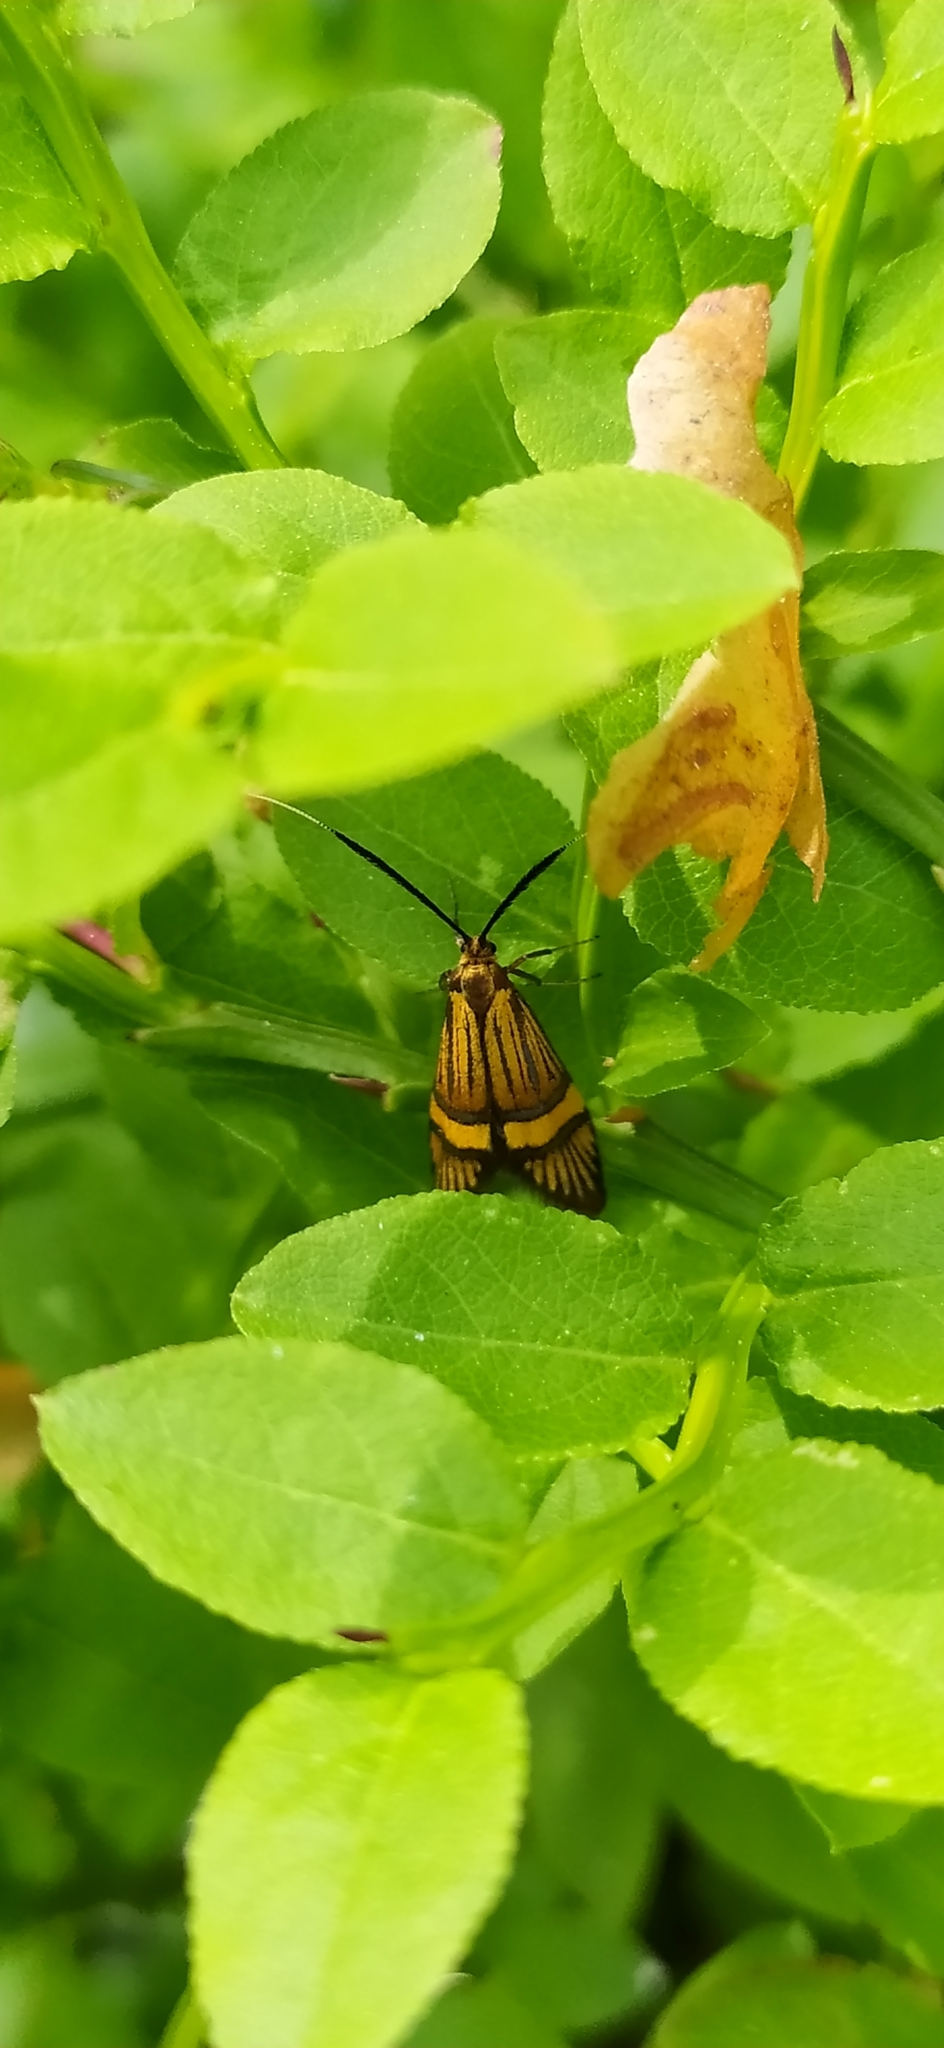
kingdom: Animalia
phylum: Arthropoda
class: Insecta
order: Lepidoptera
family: Adelidae
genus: Adela
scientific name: Adela croesella
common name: Small barred long-horn
